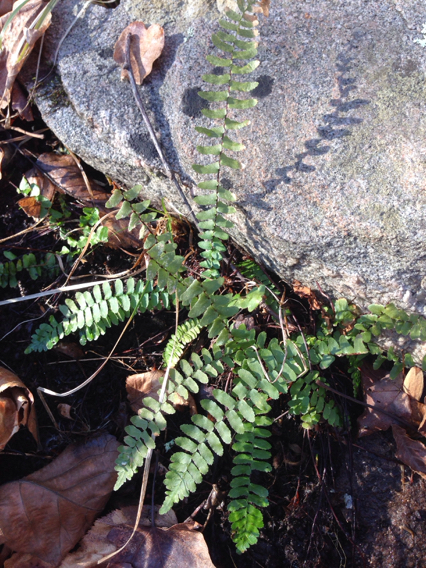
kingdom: Plantae
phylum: Tracheophyta
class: Polypodiopsida
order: Polypodiales
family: Aspleniaceae
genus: Asplenium
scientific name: Asplenium platyneuron
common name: Ebony spleenwort
